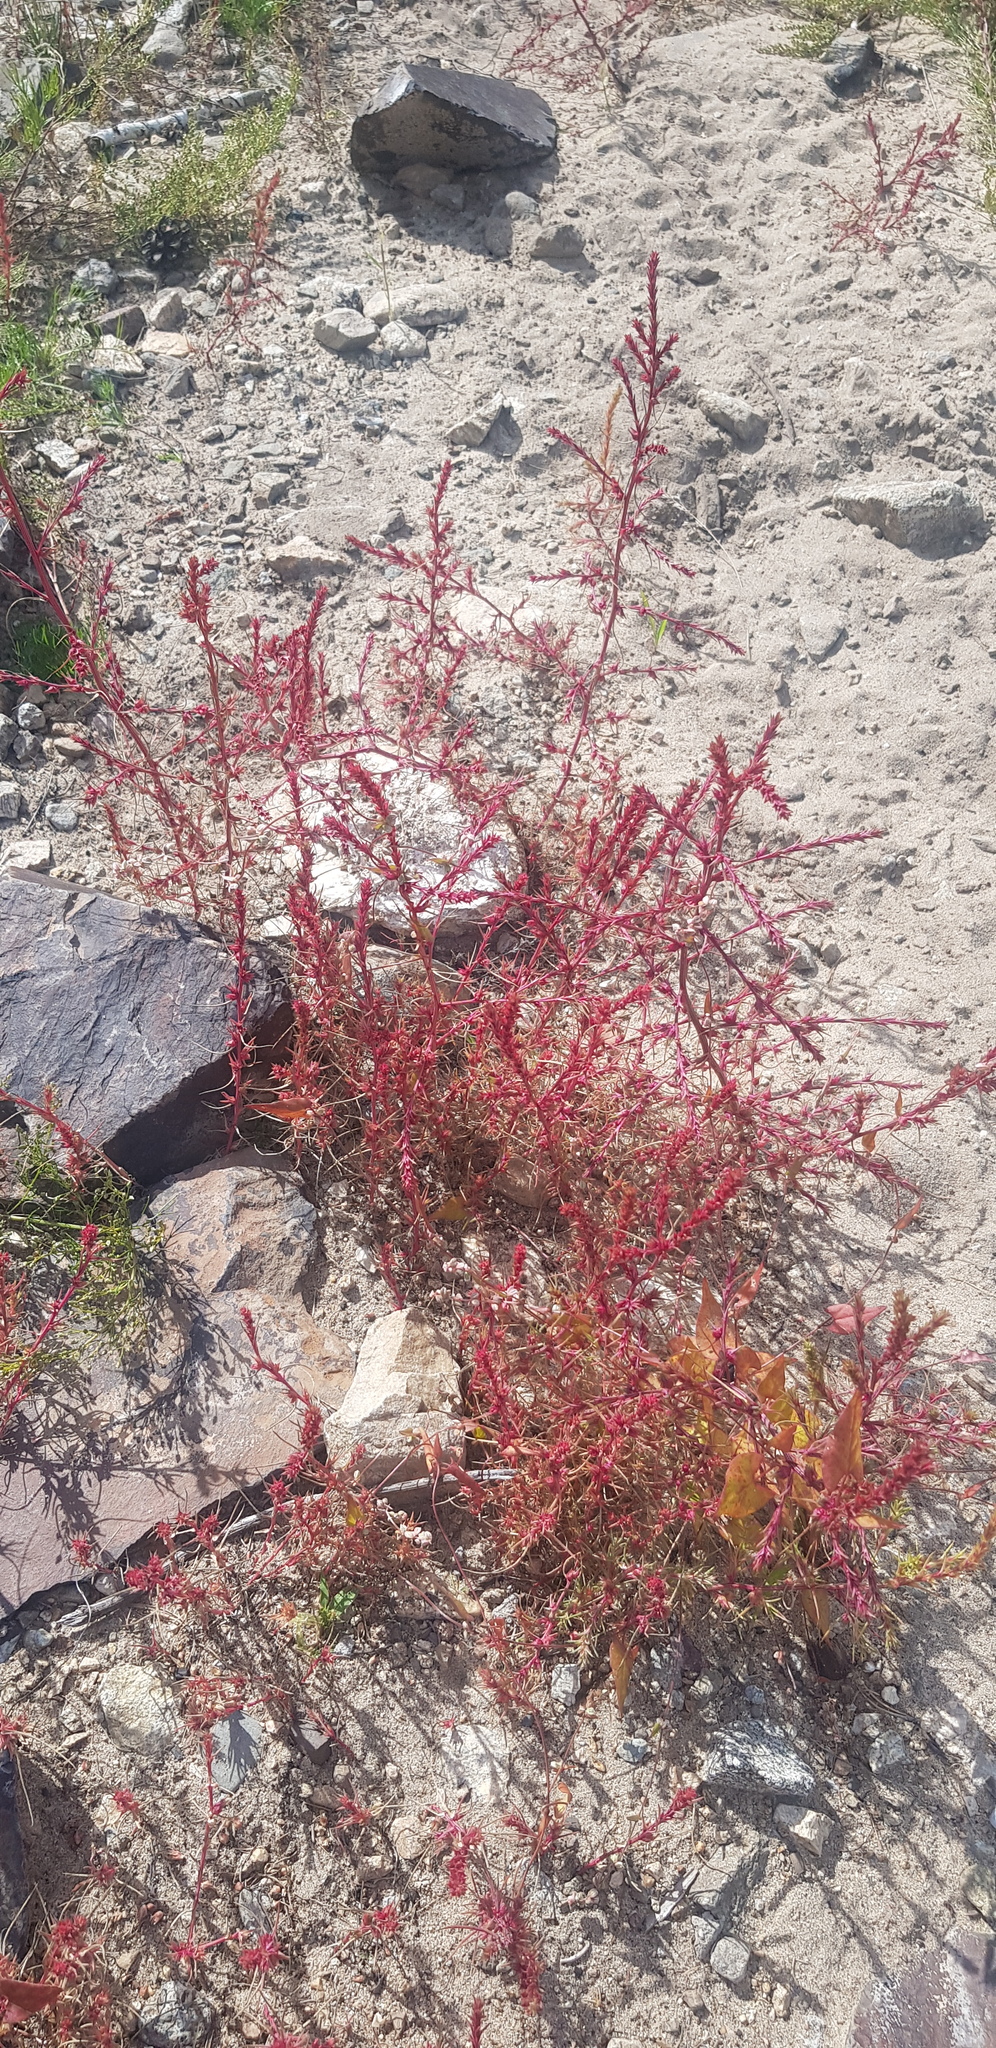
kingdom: Plantae
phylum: Tracheophyta
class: Magnoliopsida
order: Caryophyllales
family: Amaranthaceae
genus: Salsola
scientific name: Salsola tragus
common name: Prickly russian thistle
